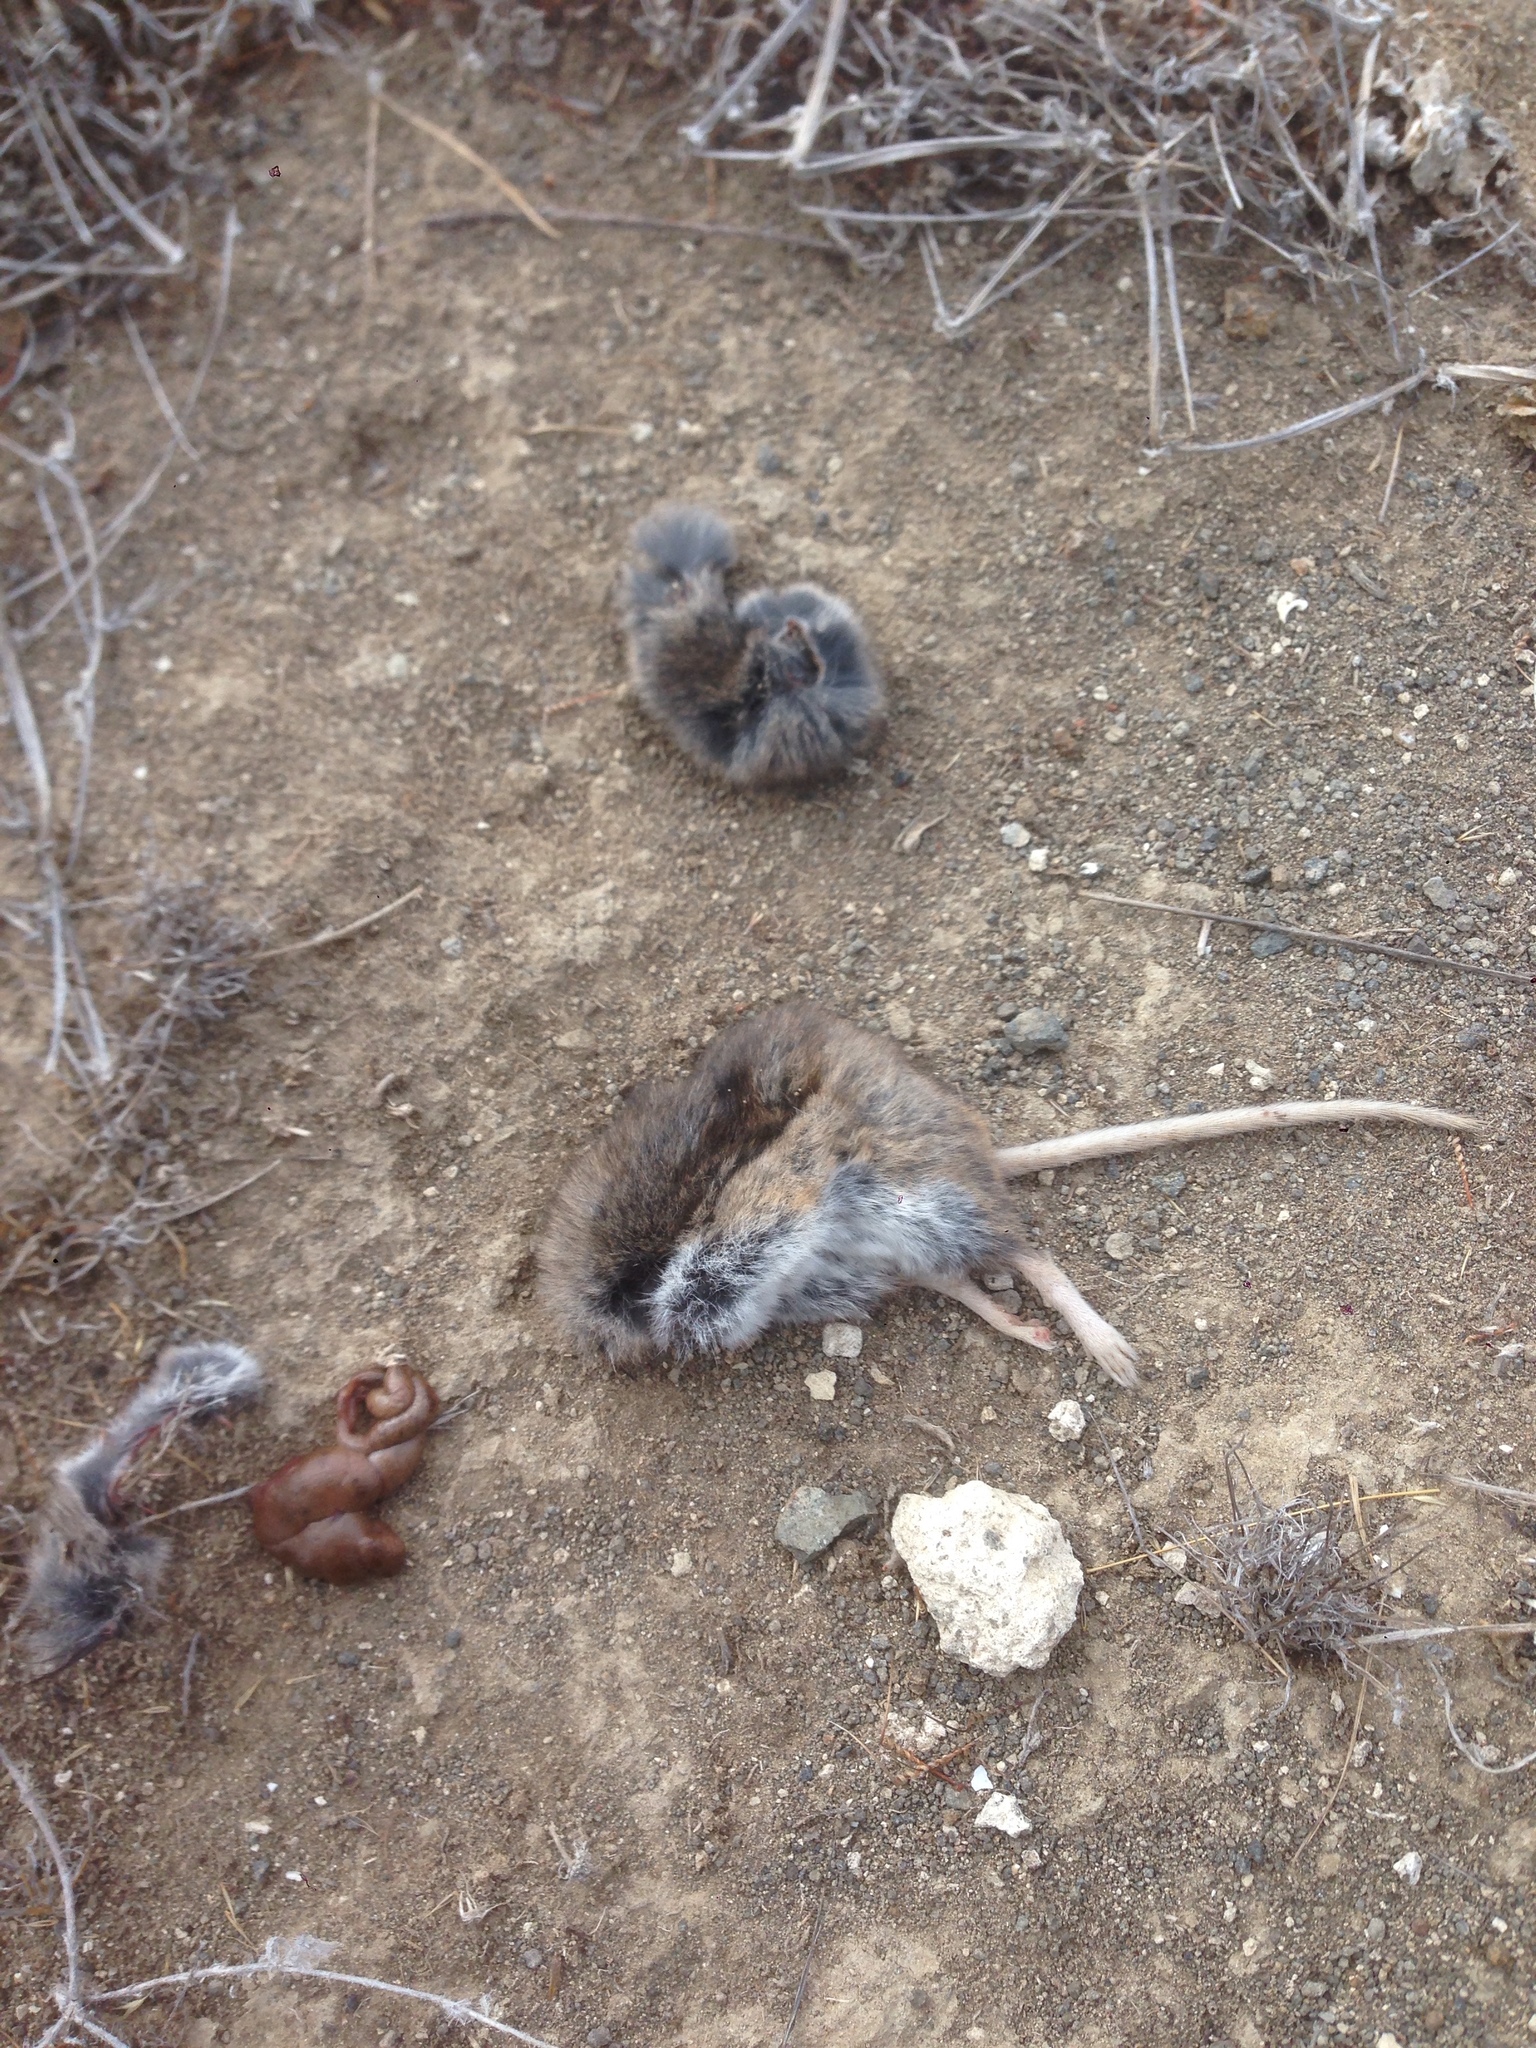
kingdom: Animalia
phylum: Chordata
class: Mammalia
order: Rodentia
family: Cricetidae
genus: Peromyscus
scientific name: Peromyscus maniculatus
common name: Deer mouse
